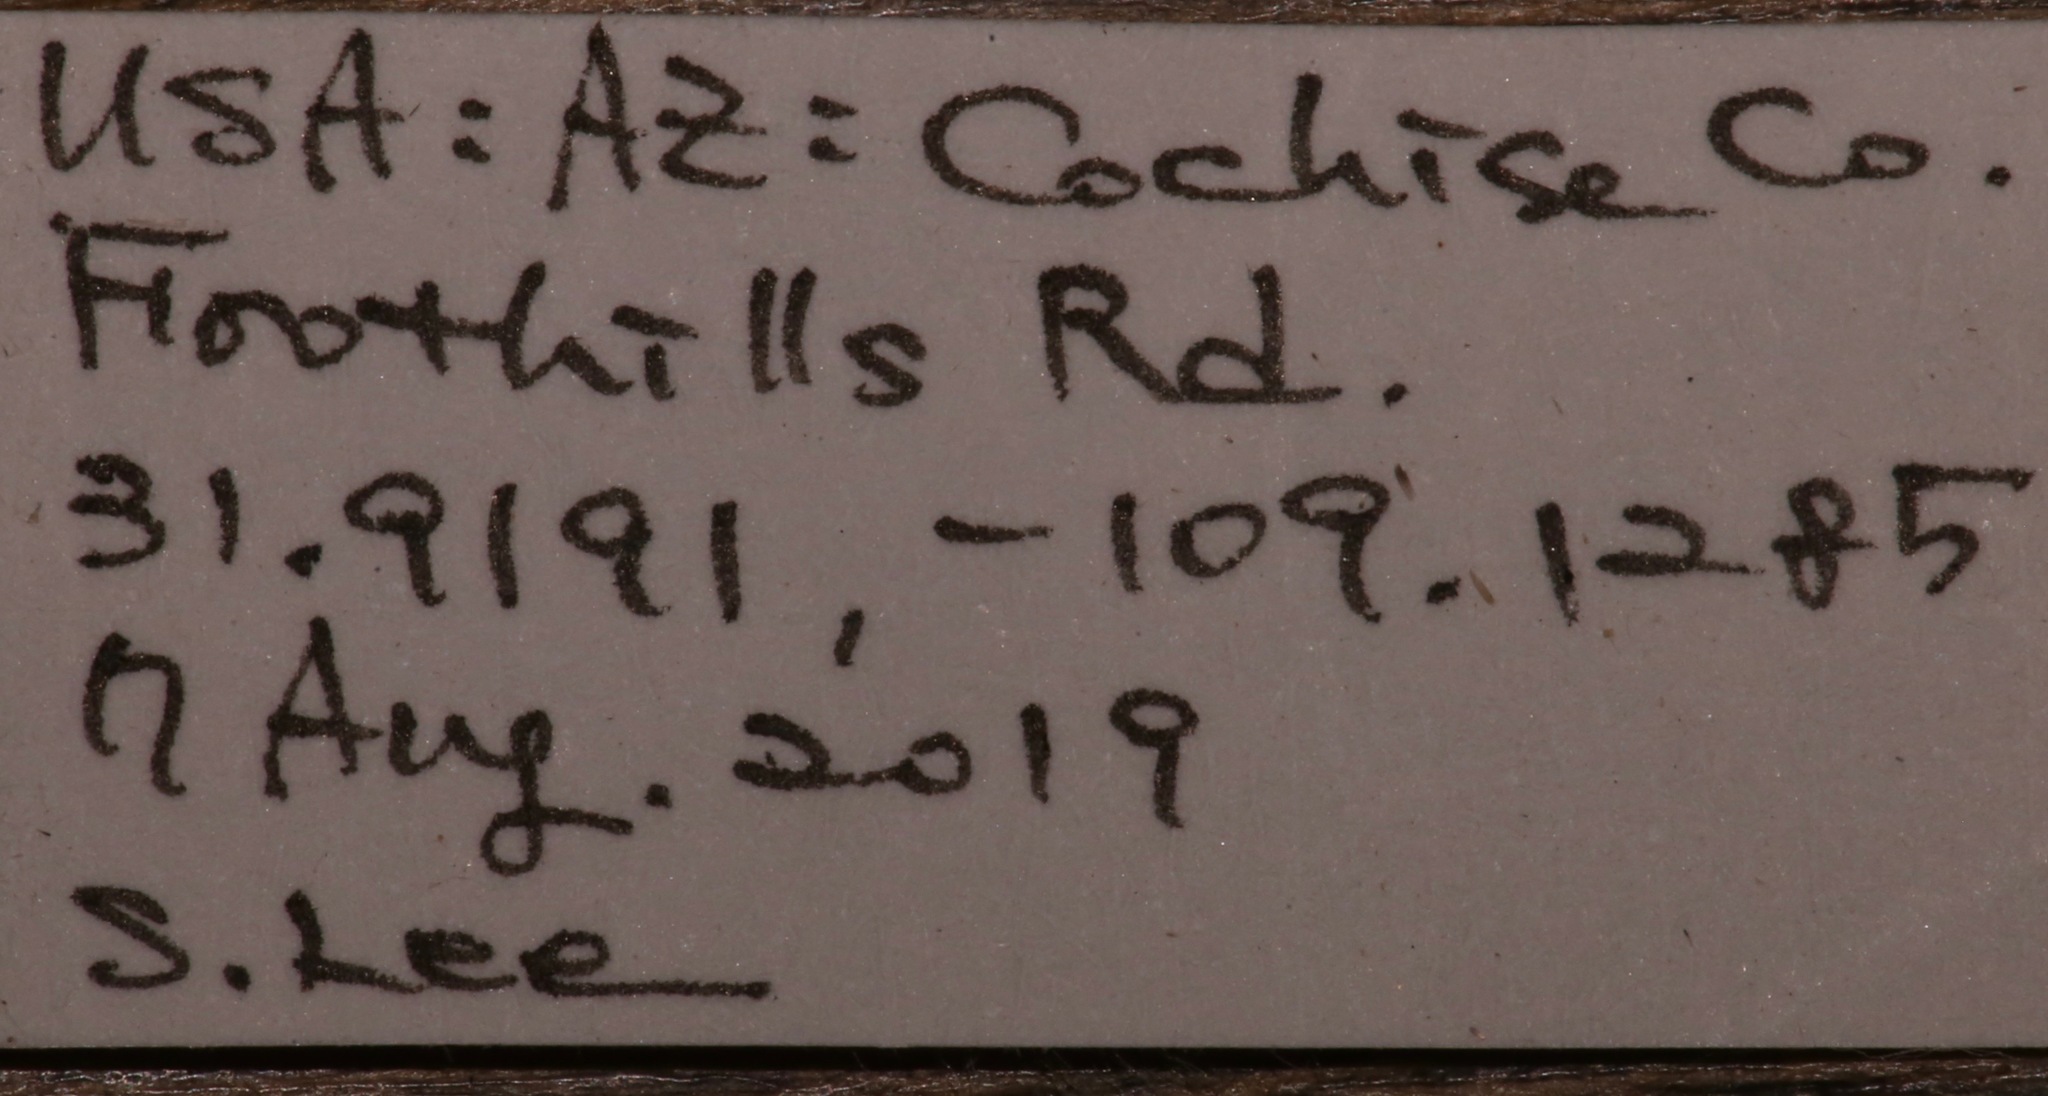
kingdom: Animalia
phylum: Arthropoda
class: Insecta
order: Lepidoptera
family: Apatelodidae
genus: Olceclostera
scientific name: Olceclostera angelica
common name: Angel moth
